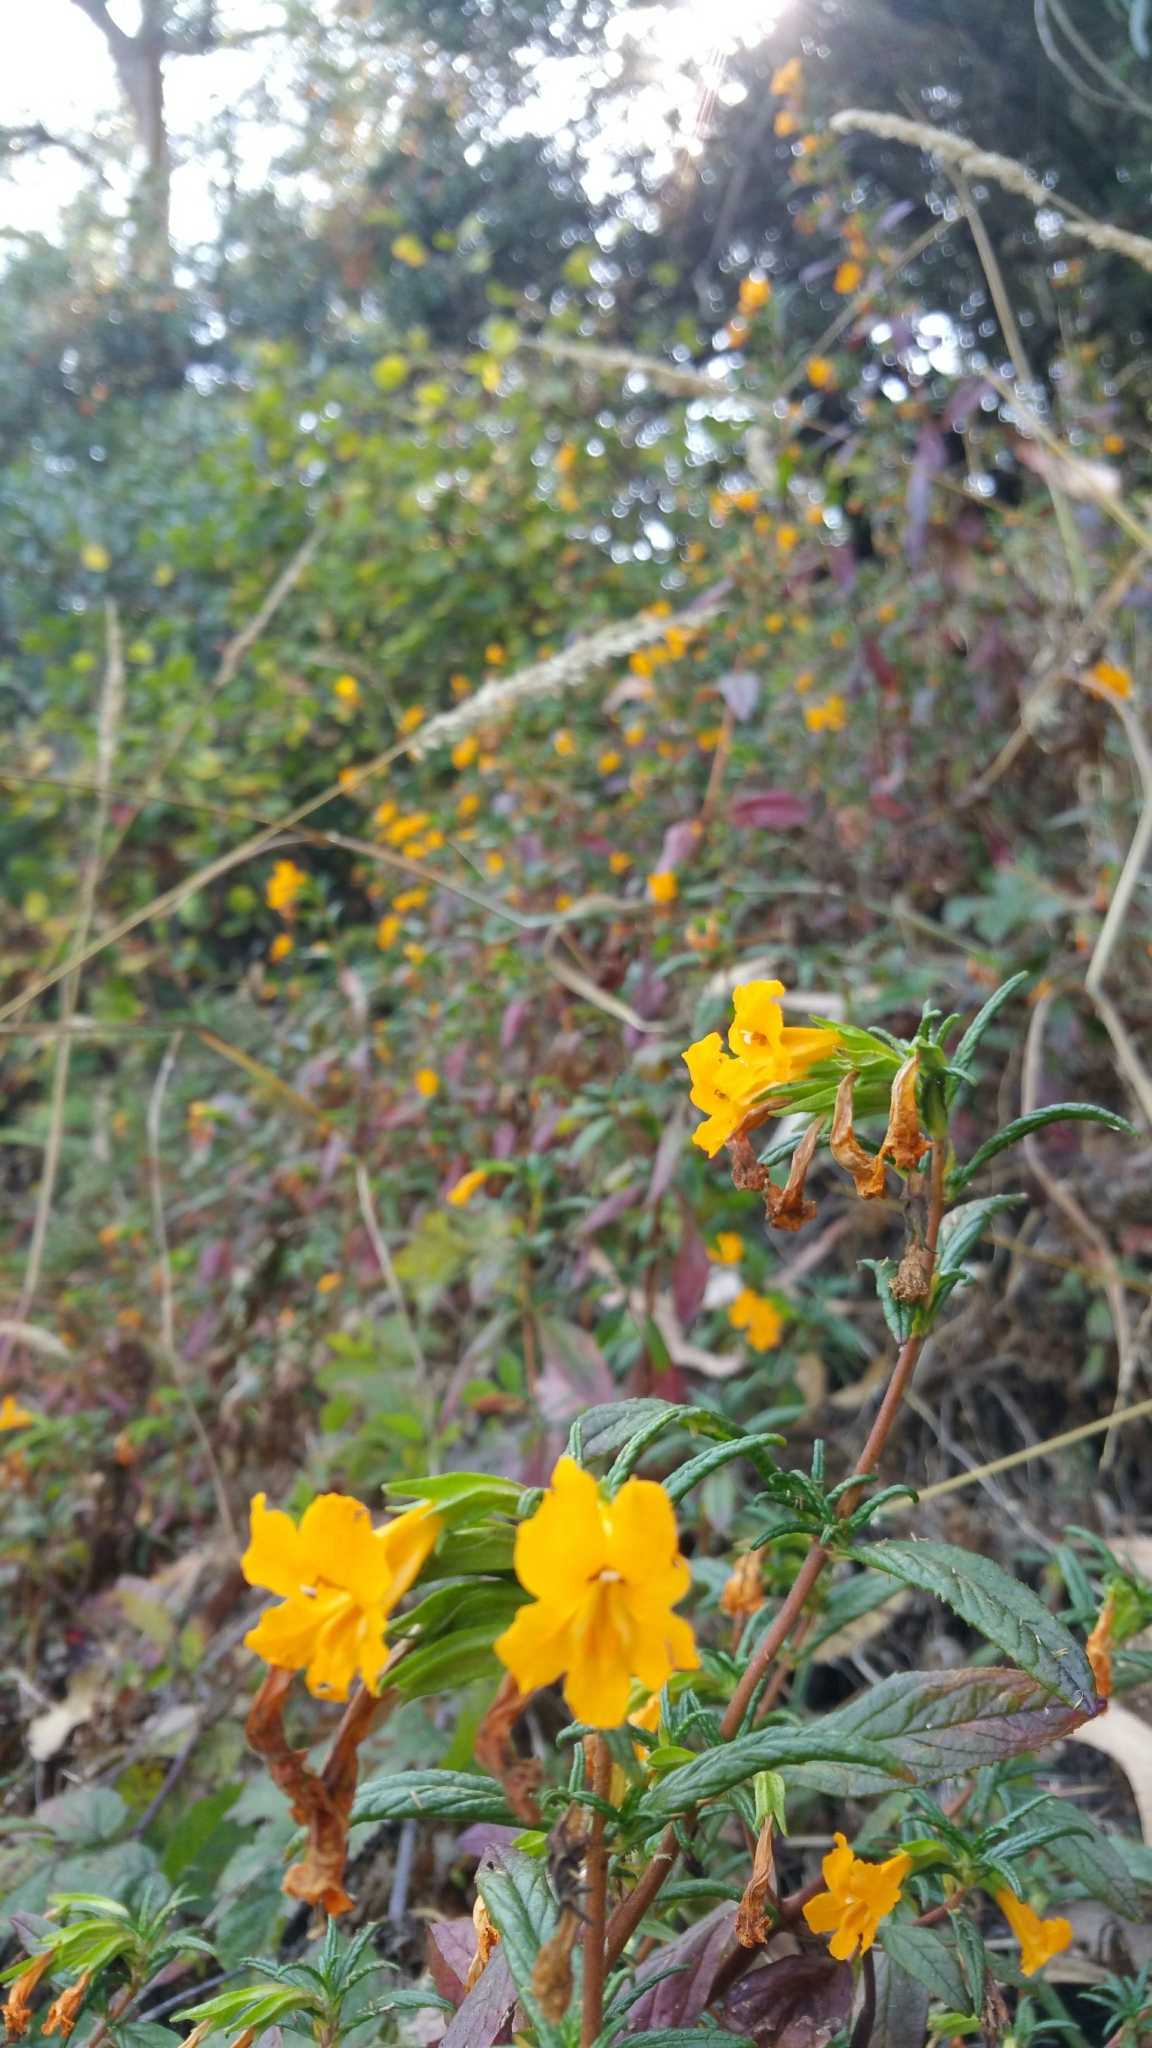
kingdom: Plantae
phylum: Tracheophyta
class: Magnoliopsida
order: Lamiales
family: Phrymaceae
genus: Diplacus
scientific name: Diplacus aurantiacus
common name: Bush monkey-flower
